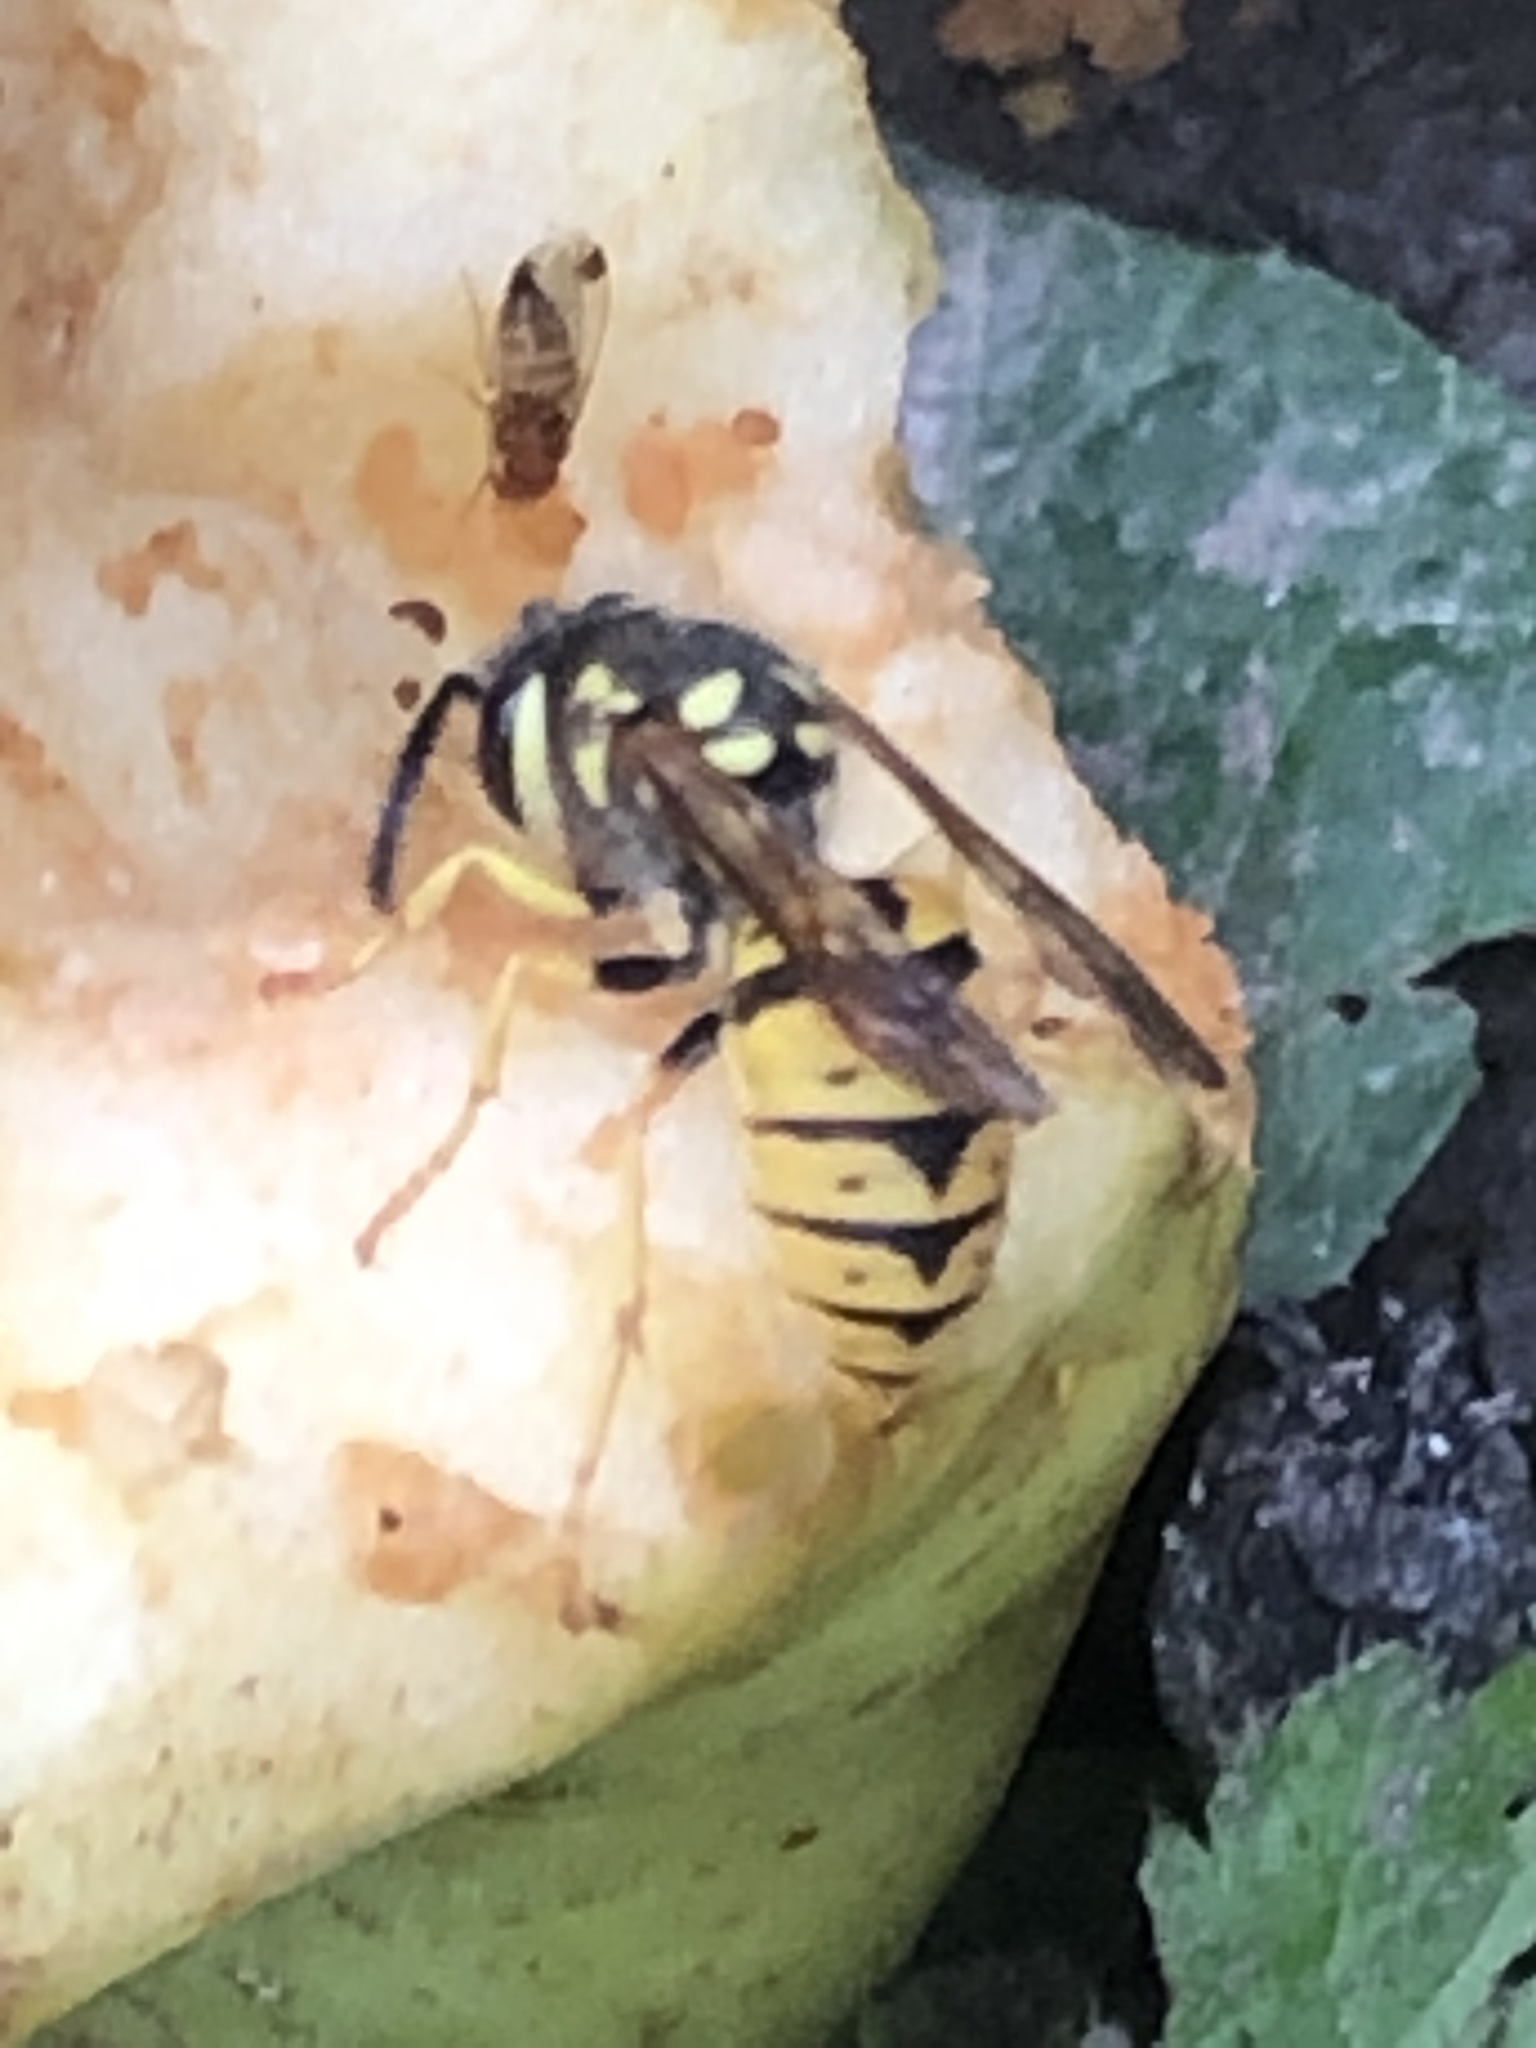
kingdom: Animalia
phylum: Arthropoda
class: Insecta
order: Hymenoptera
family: Vespidae
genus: Vespula
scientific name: Vespula germanica
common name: German wasp
